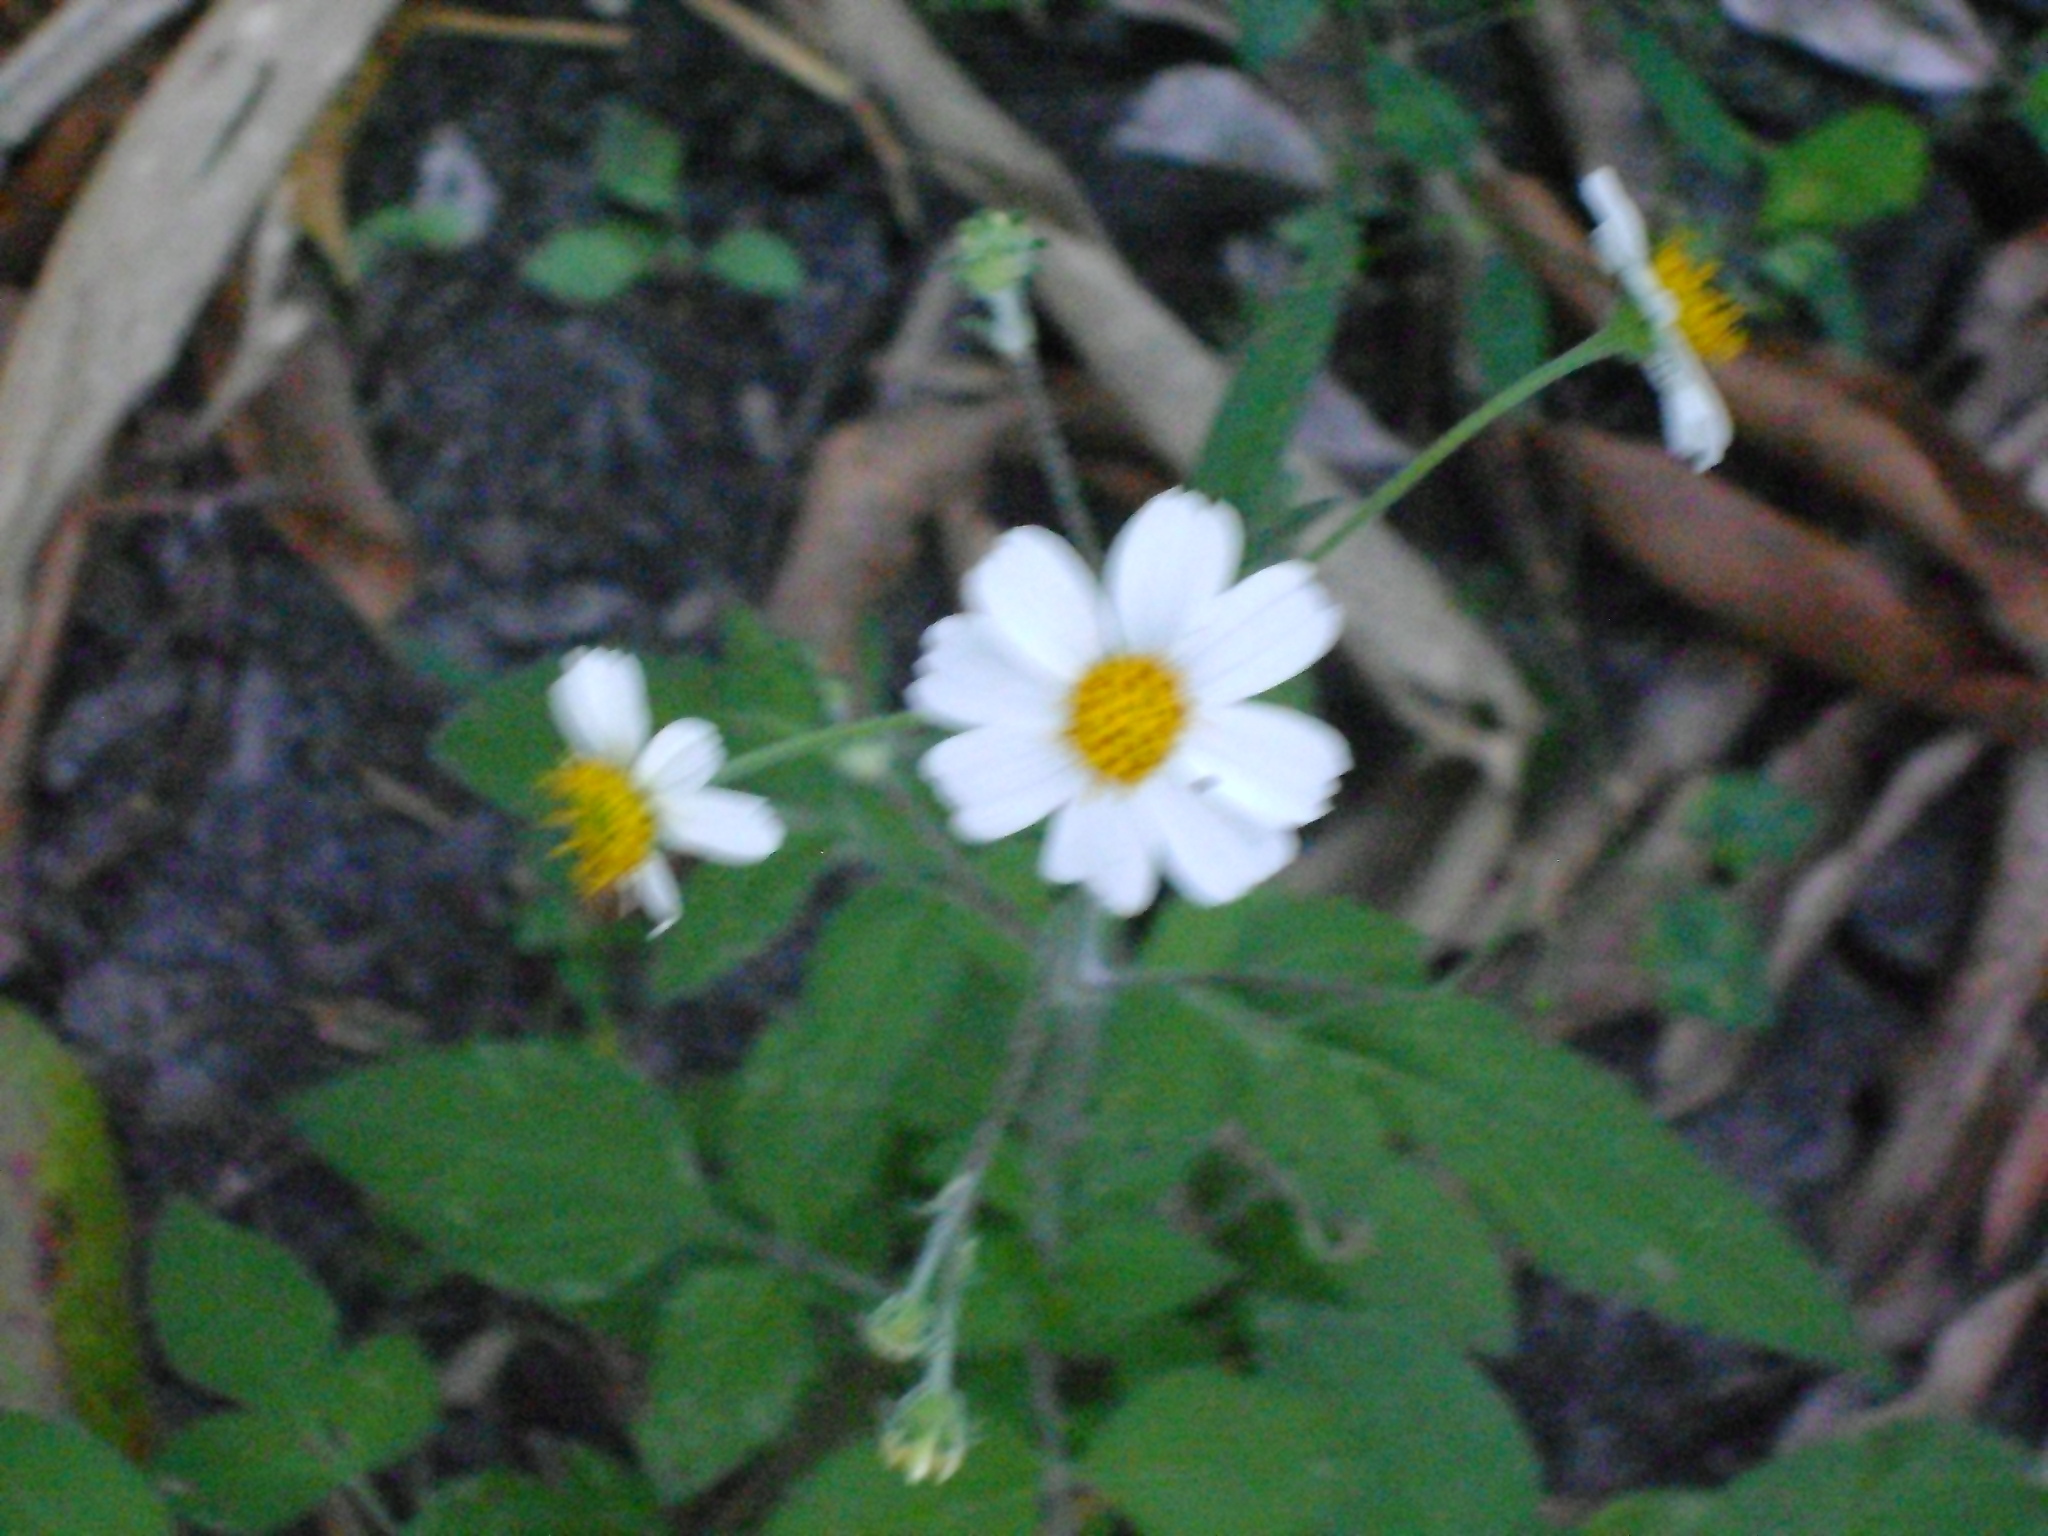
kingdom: Plantae
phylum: Tracheophyta
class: Magnoliopsida
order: Asterales
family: Asteraceae
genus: Bidens
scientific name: Bidens alba
